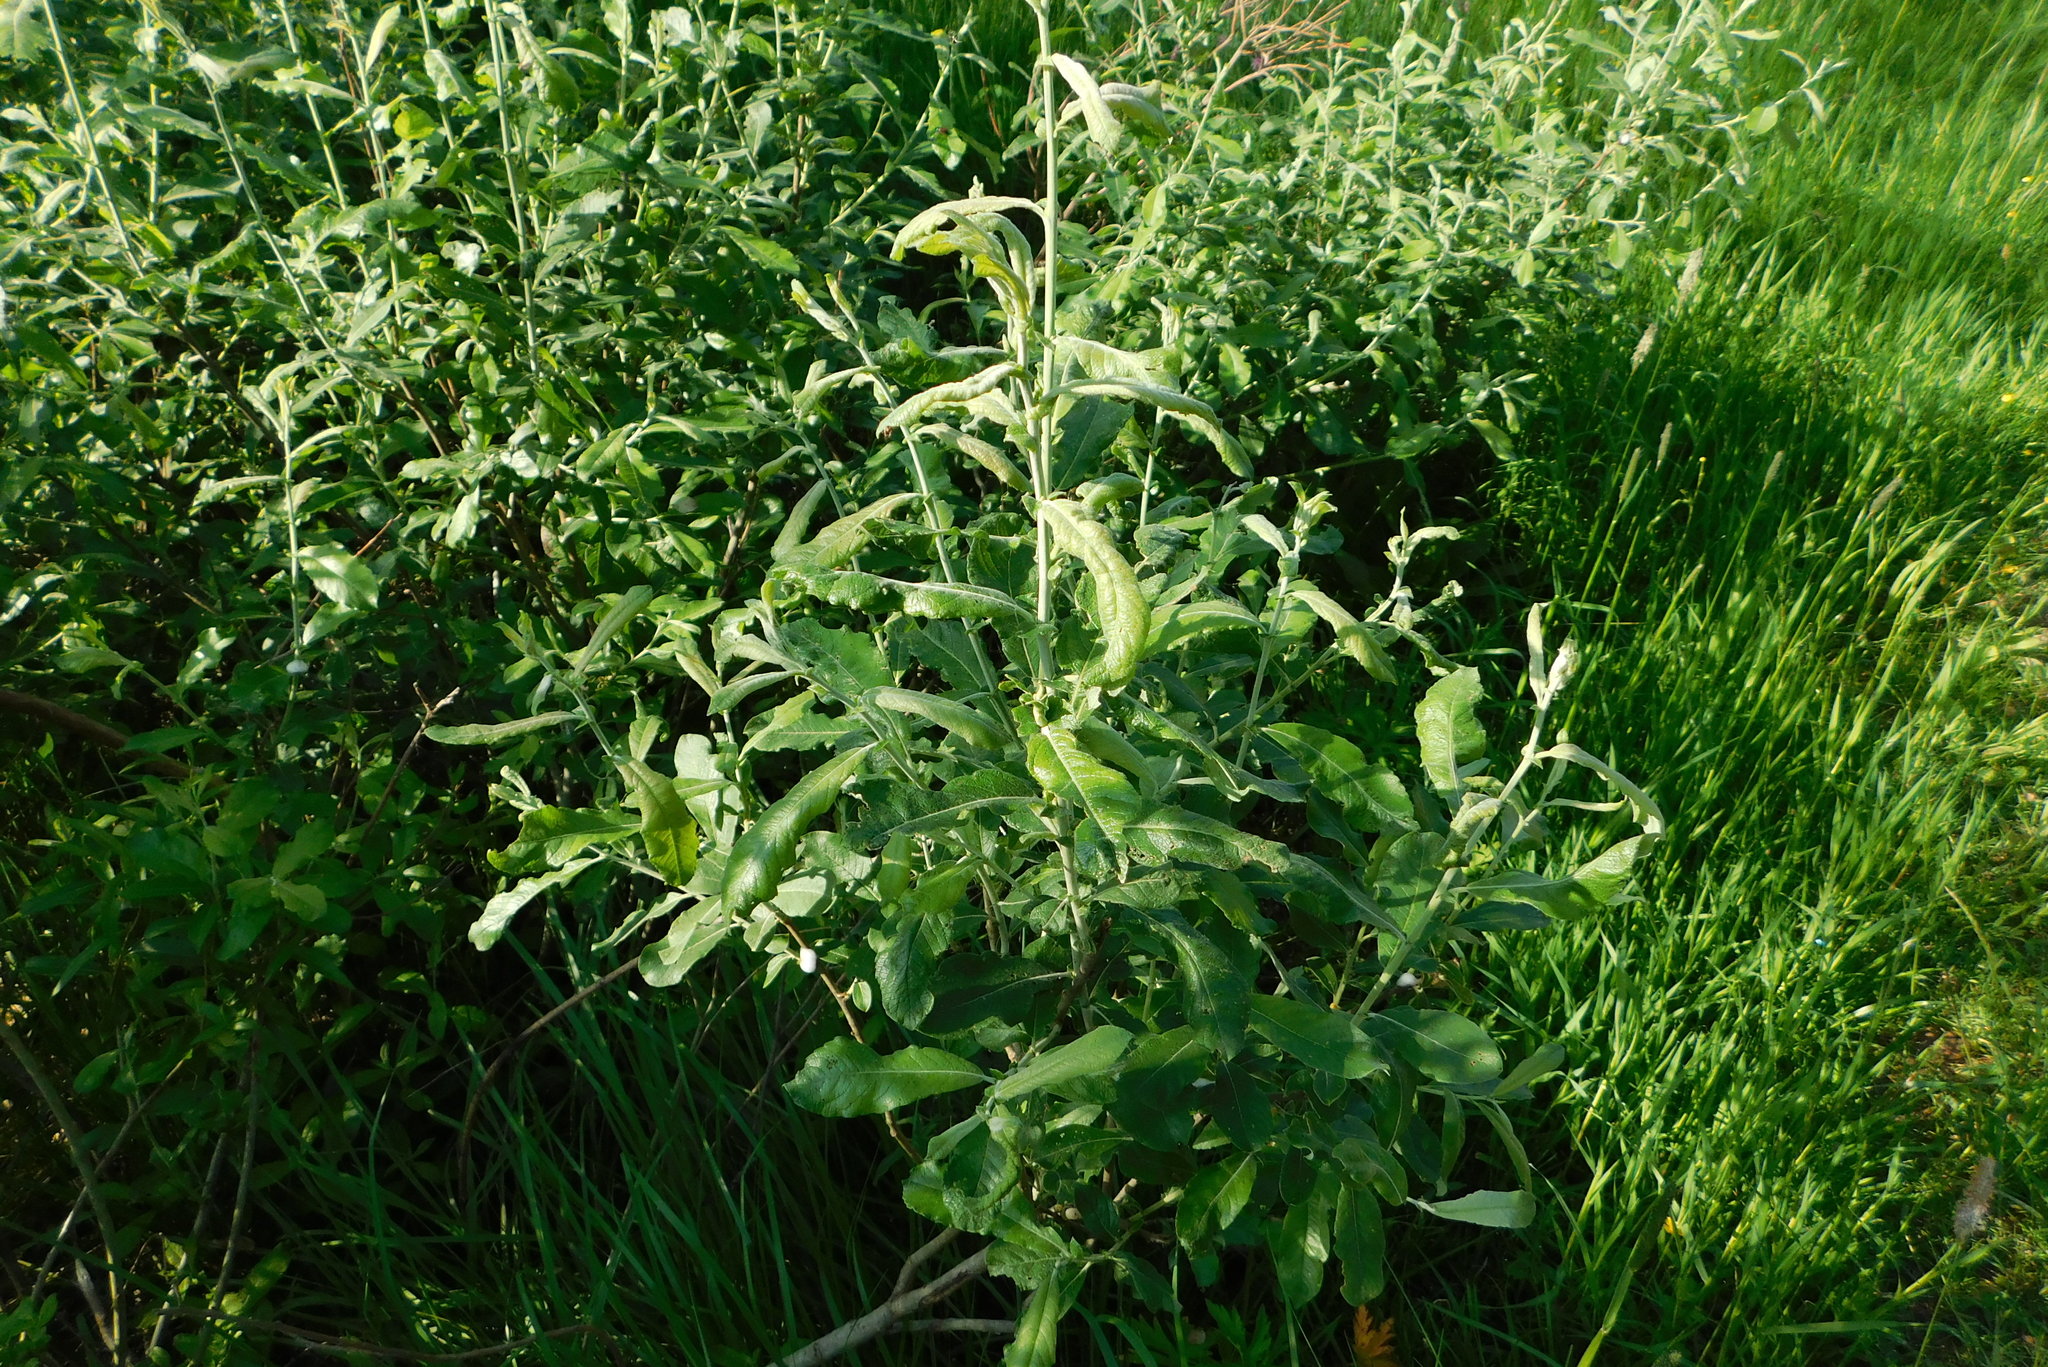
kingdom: Plantae
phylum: Tracheophyta
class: Magnoliopsida
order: Malpighiales
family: Salicaceae
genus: Salix
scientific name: Salix cinerea
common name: Common sallow
